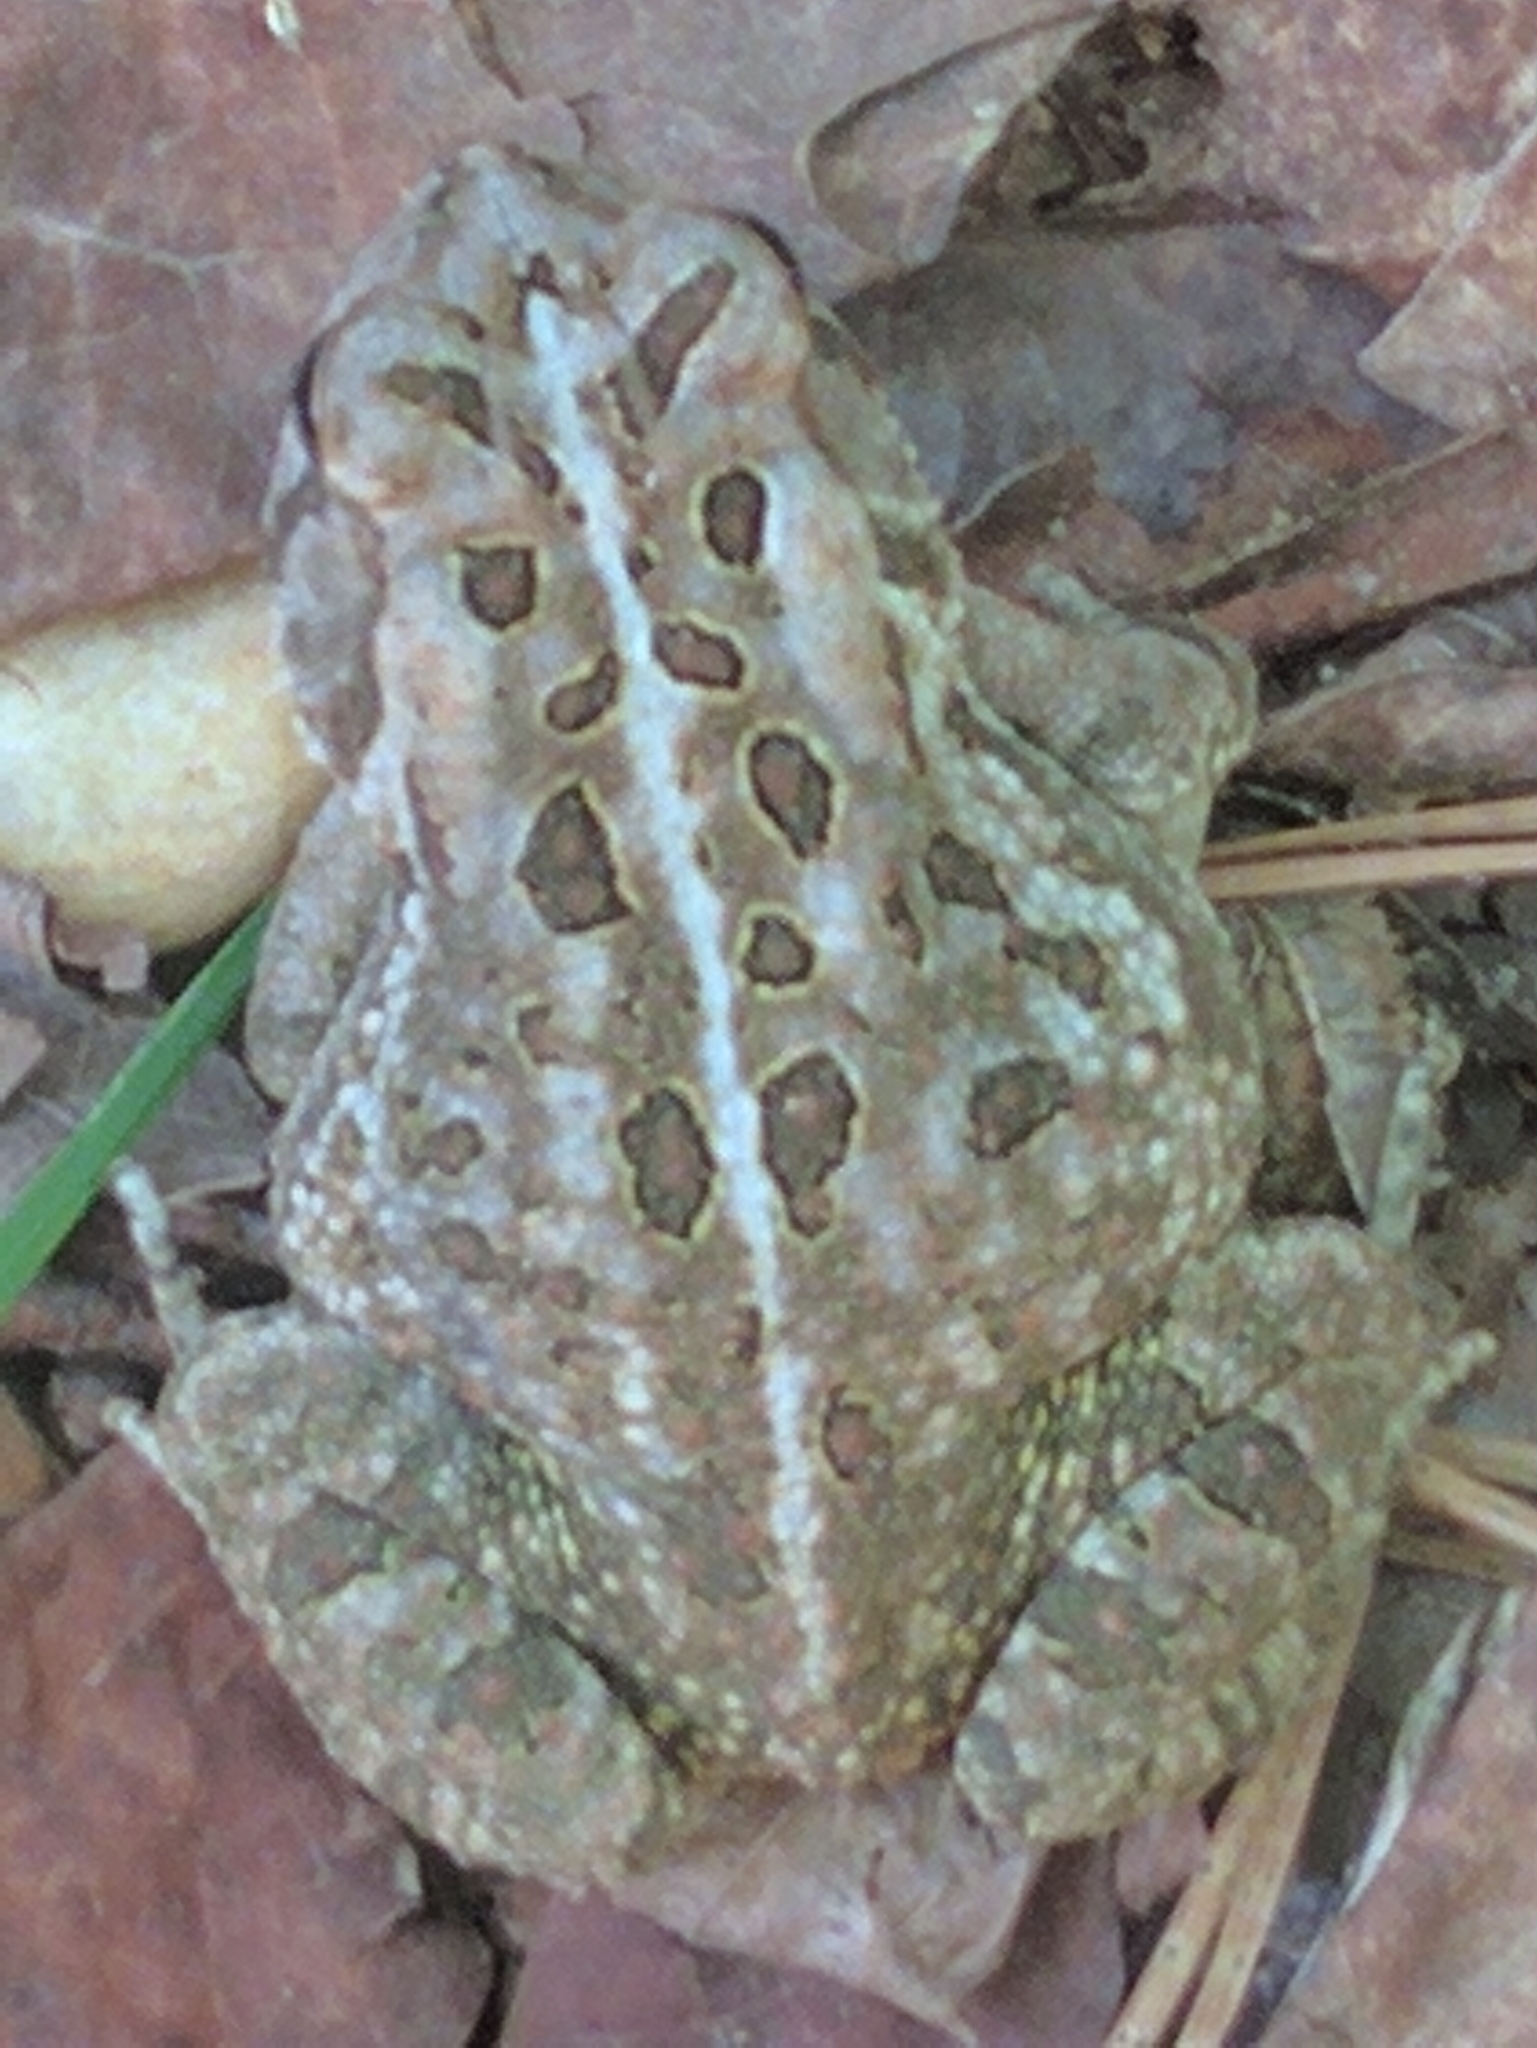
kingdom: Animalia
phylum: Chordata
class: Amphibia
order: Anura
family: Bufonidae
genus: Anaxyrus
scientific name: Anaxyrus fowleri
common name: Fowler's toad
